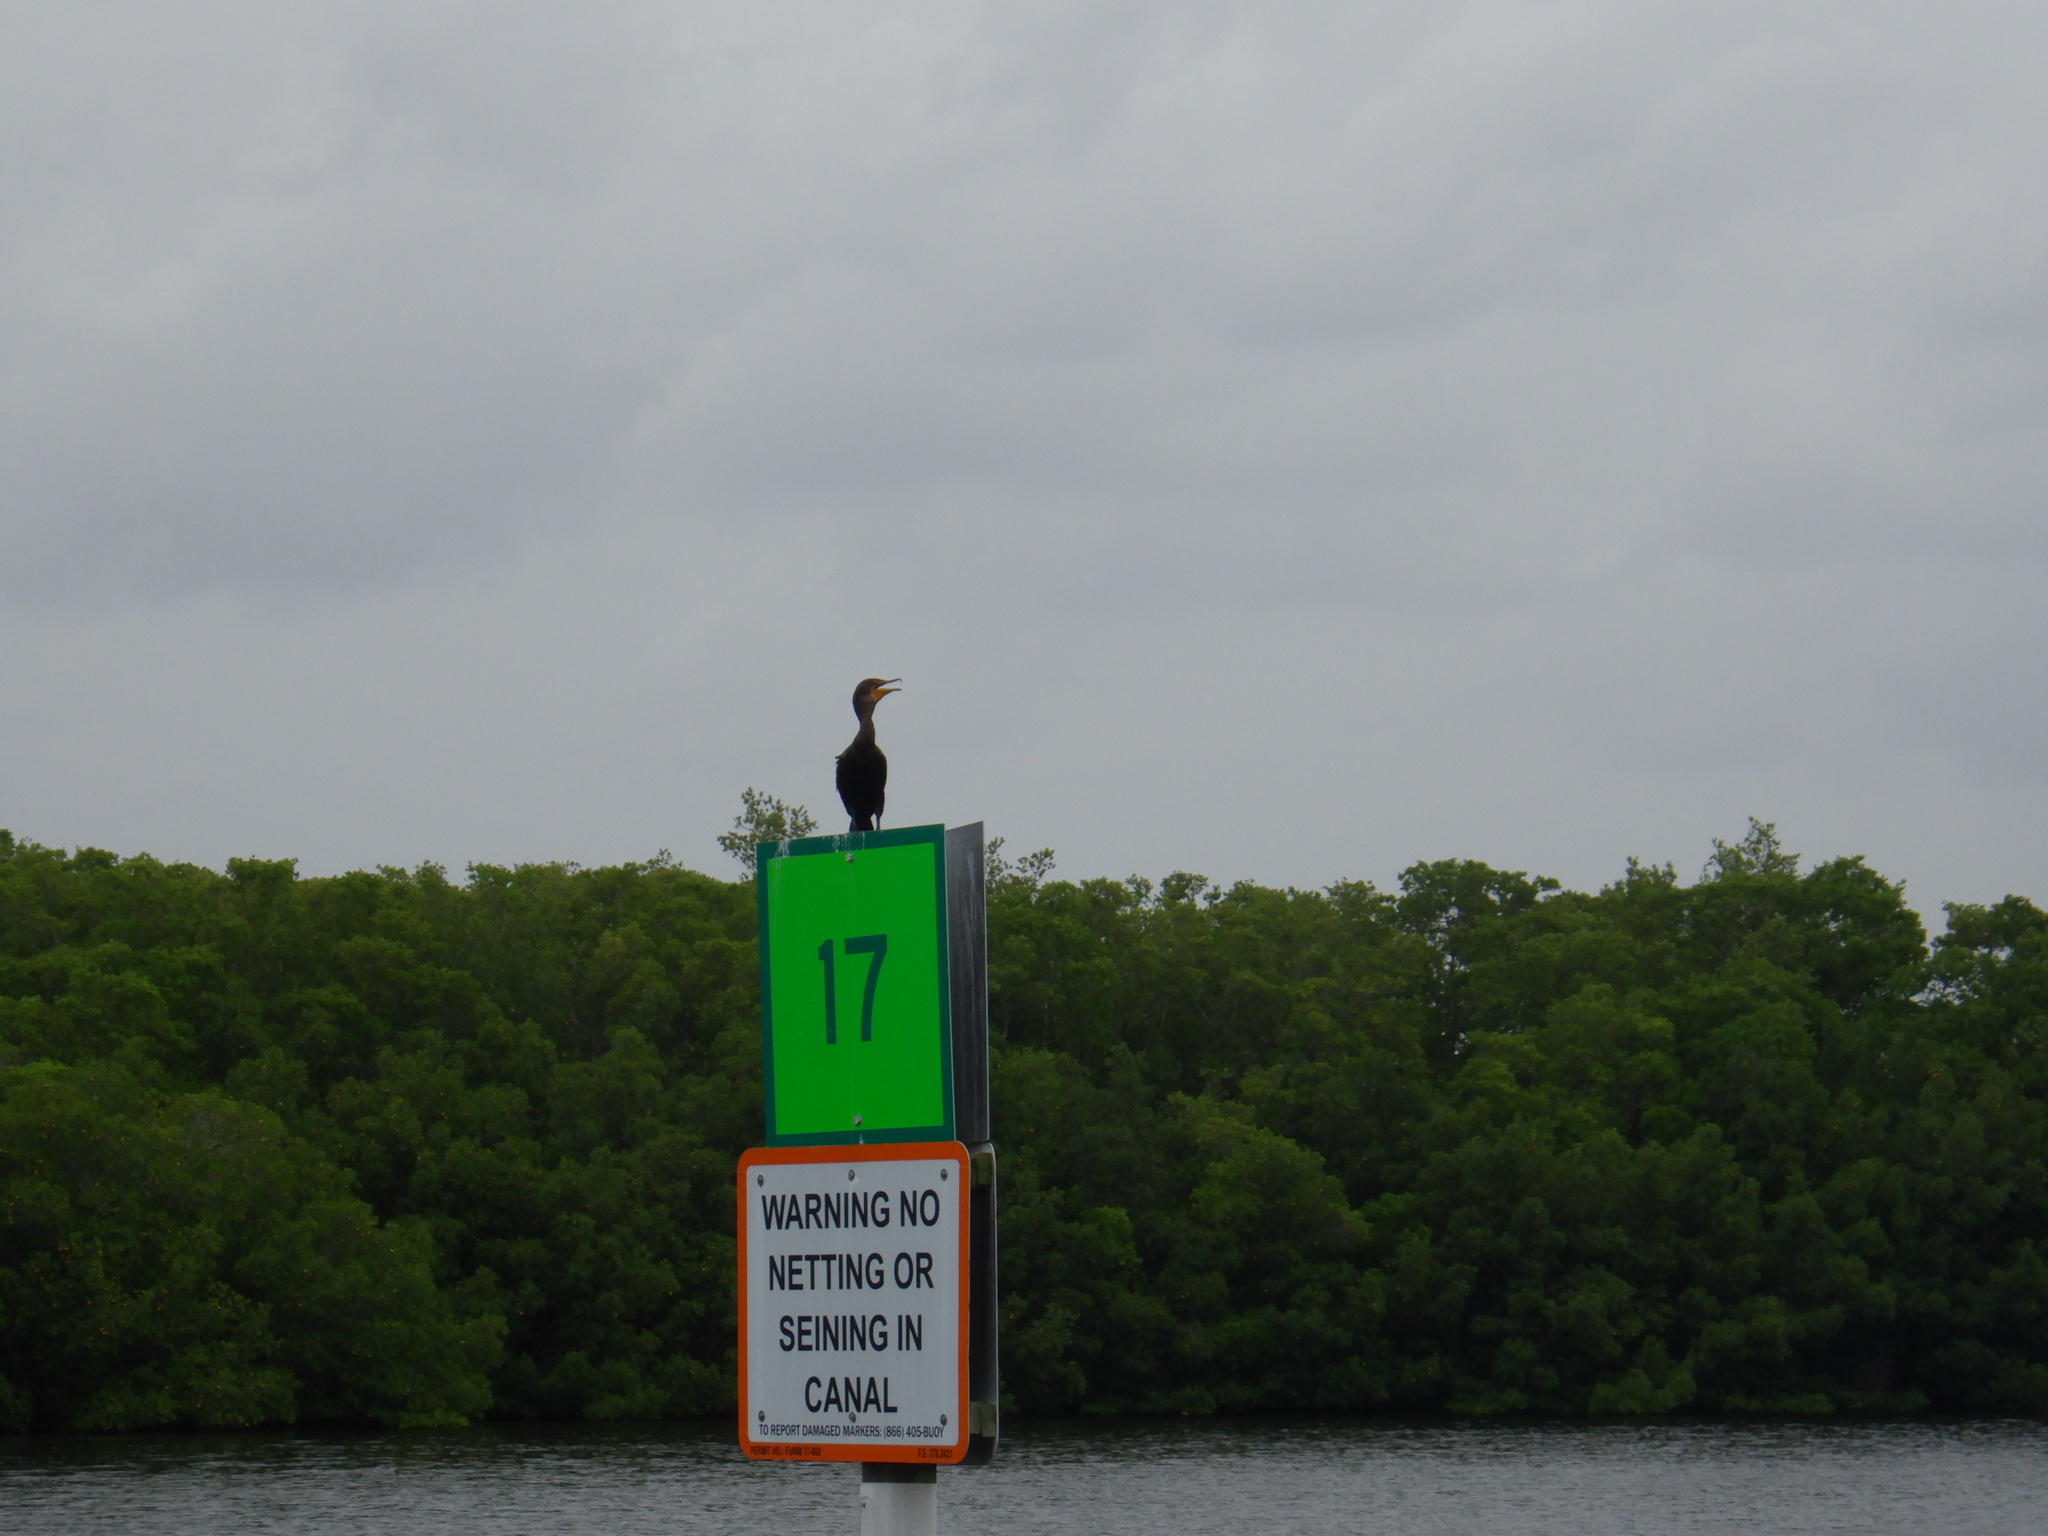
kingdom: Animalia
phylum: Chordata
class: Aves
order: Suliformes
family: Phalacrocoracidae
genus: Phalacrocorax
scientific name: Phalacrocorax auritus
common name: Double-crested cormorant
